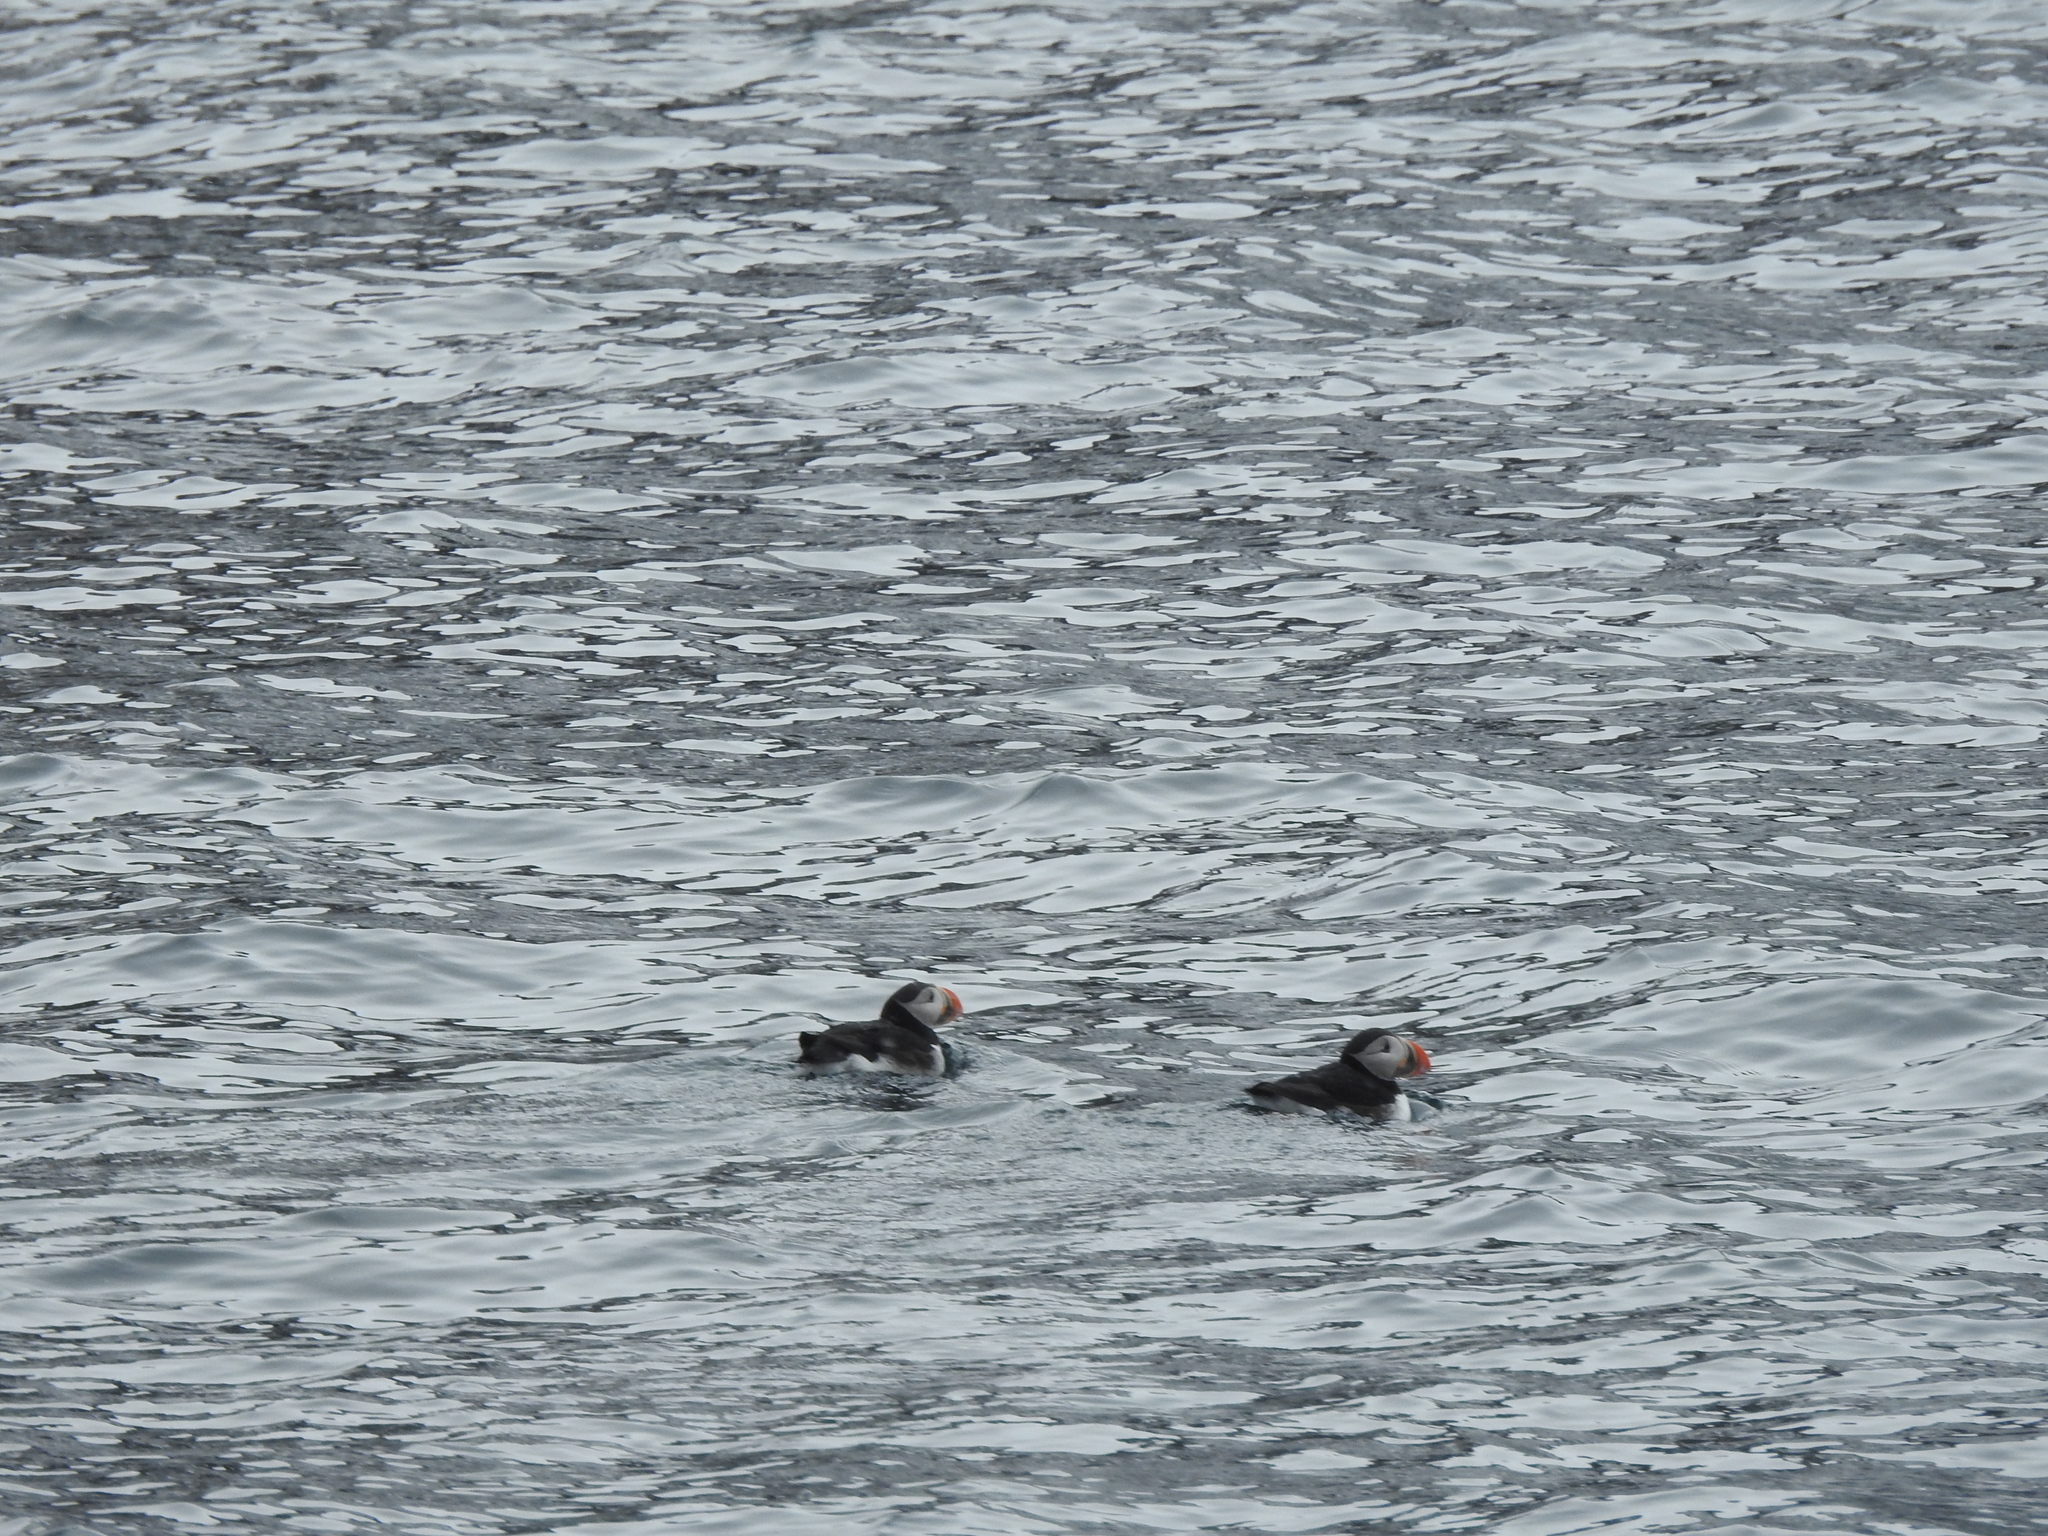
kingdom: Animalia
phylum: Chordata
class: Aves
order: Charadriiformes
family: Alcidae
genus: Fratercula
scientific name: Fratercula arctica
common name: Atlantic puffin
